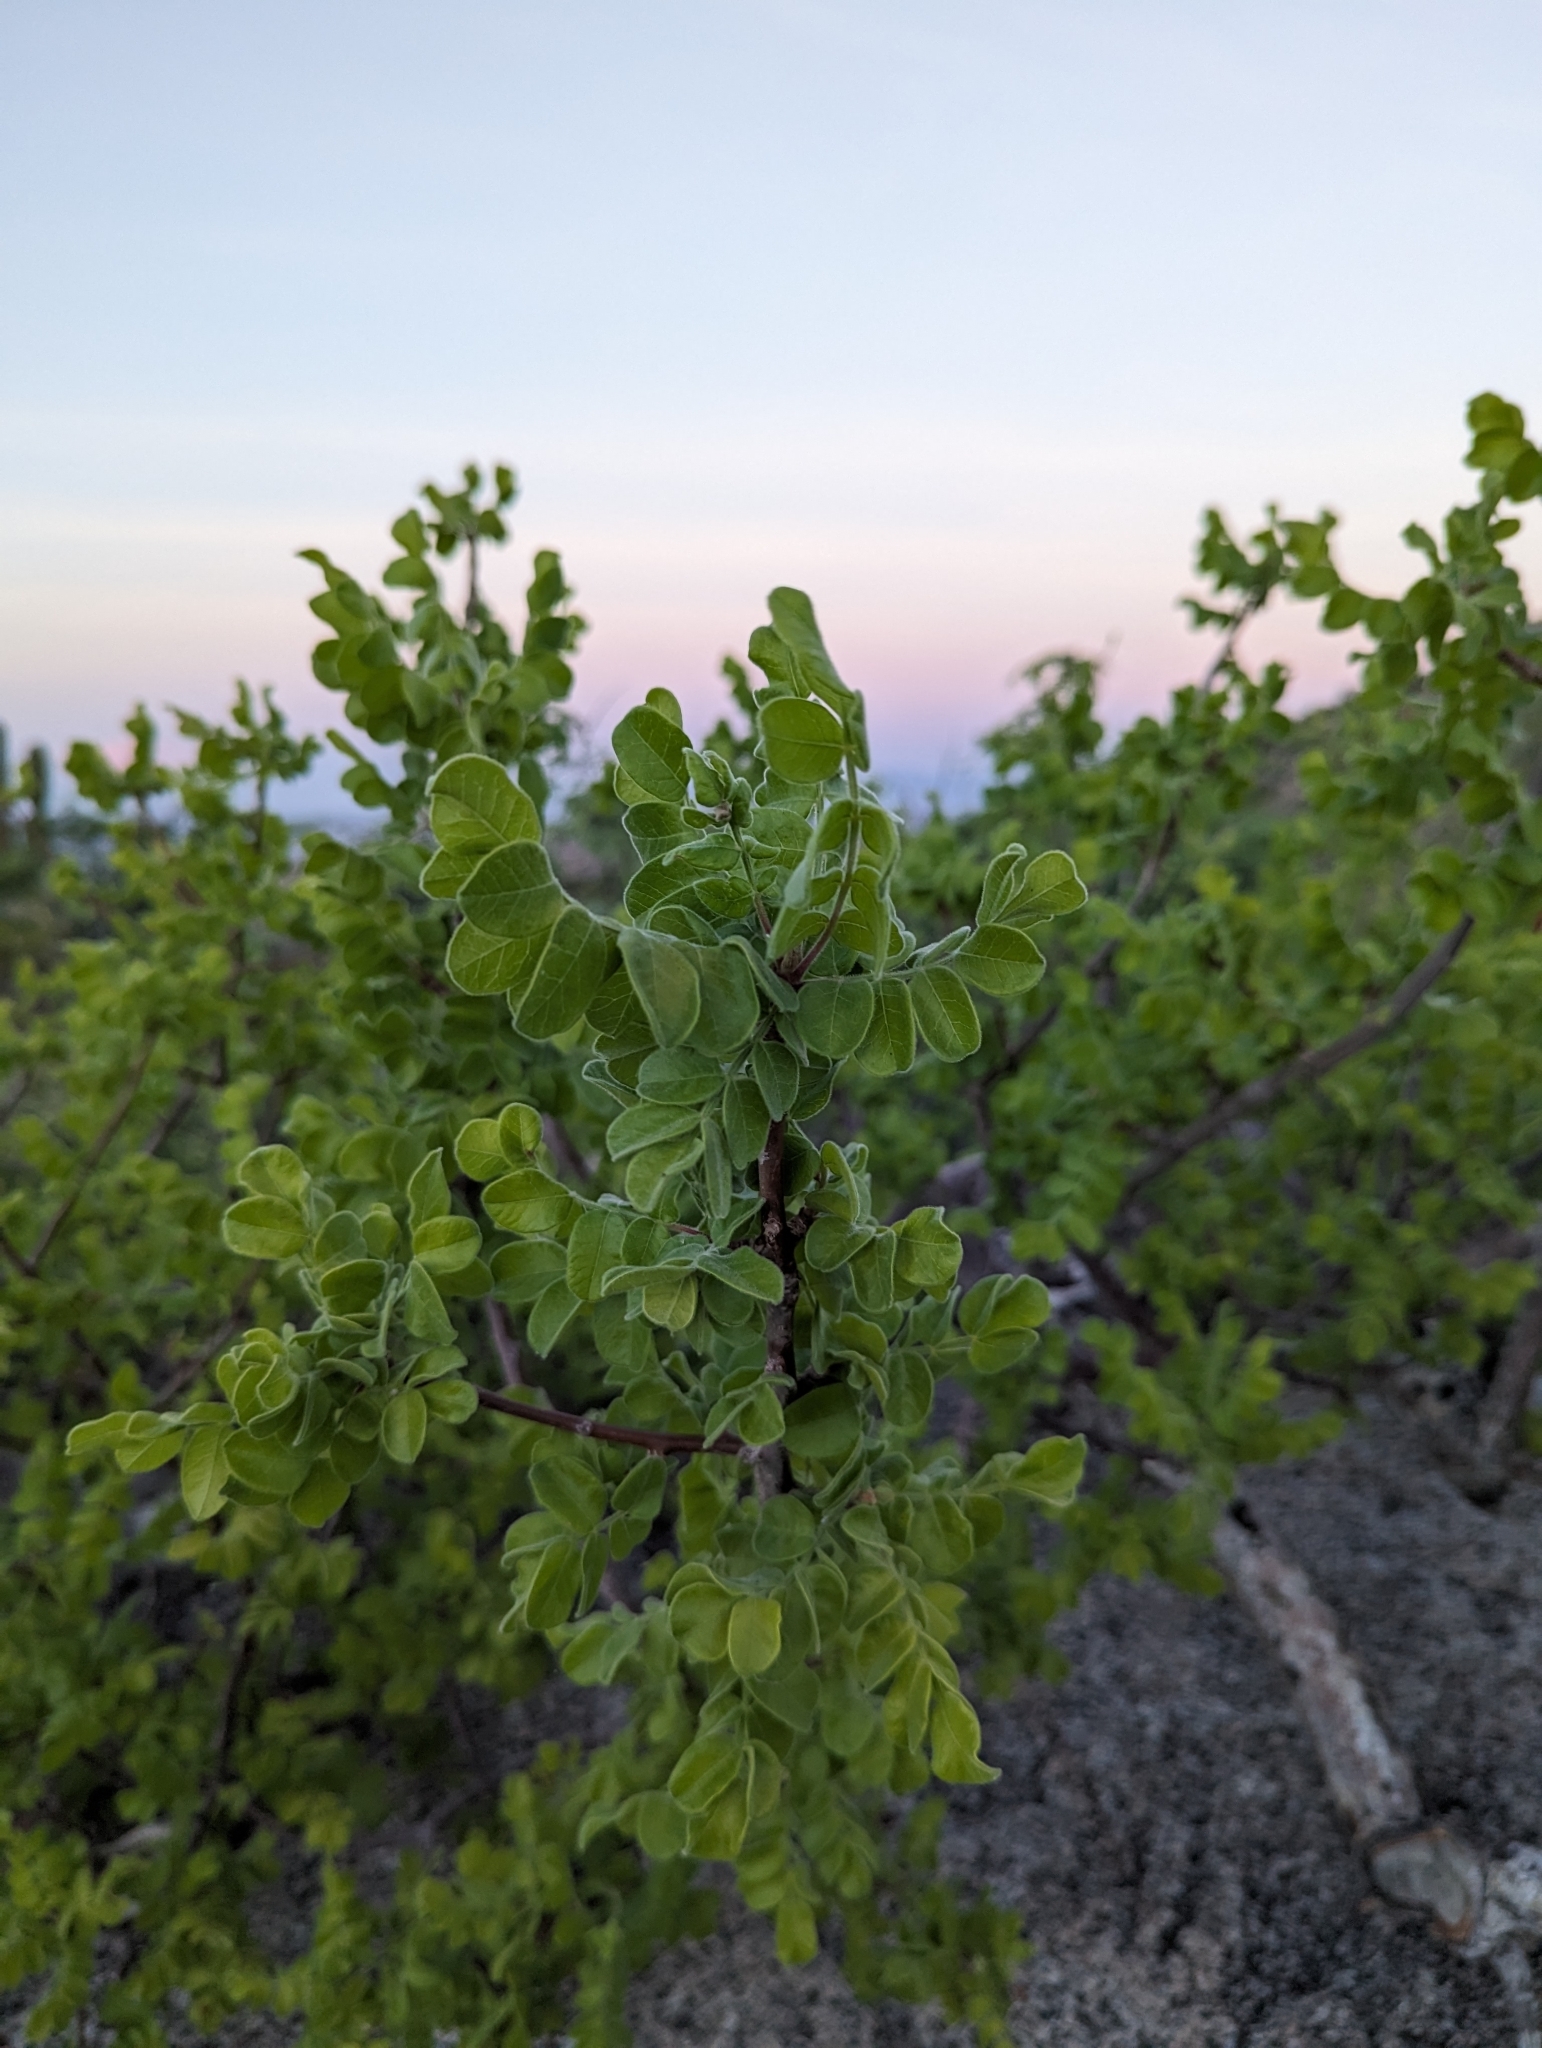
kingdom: Plantae
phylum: Tracheophyta
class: Magnoliopsida
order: Sapindales
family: Anacardiaceae
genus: Cyrtocarpa
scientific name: Cyrtocarpa edulis
